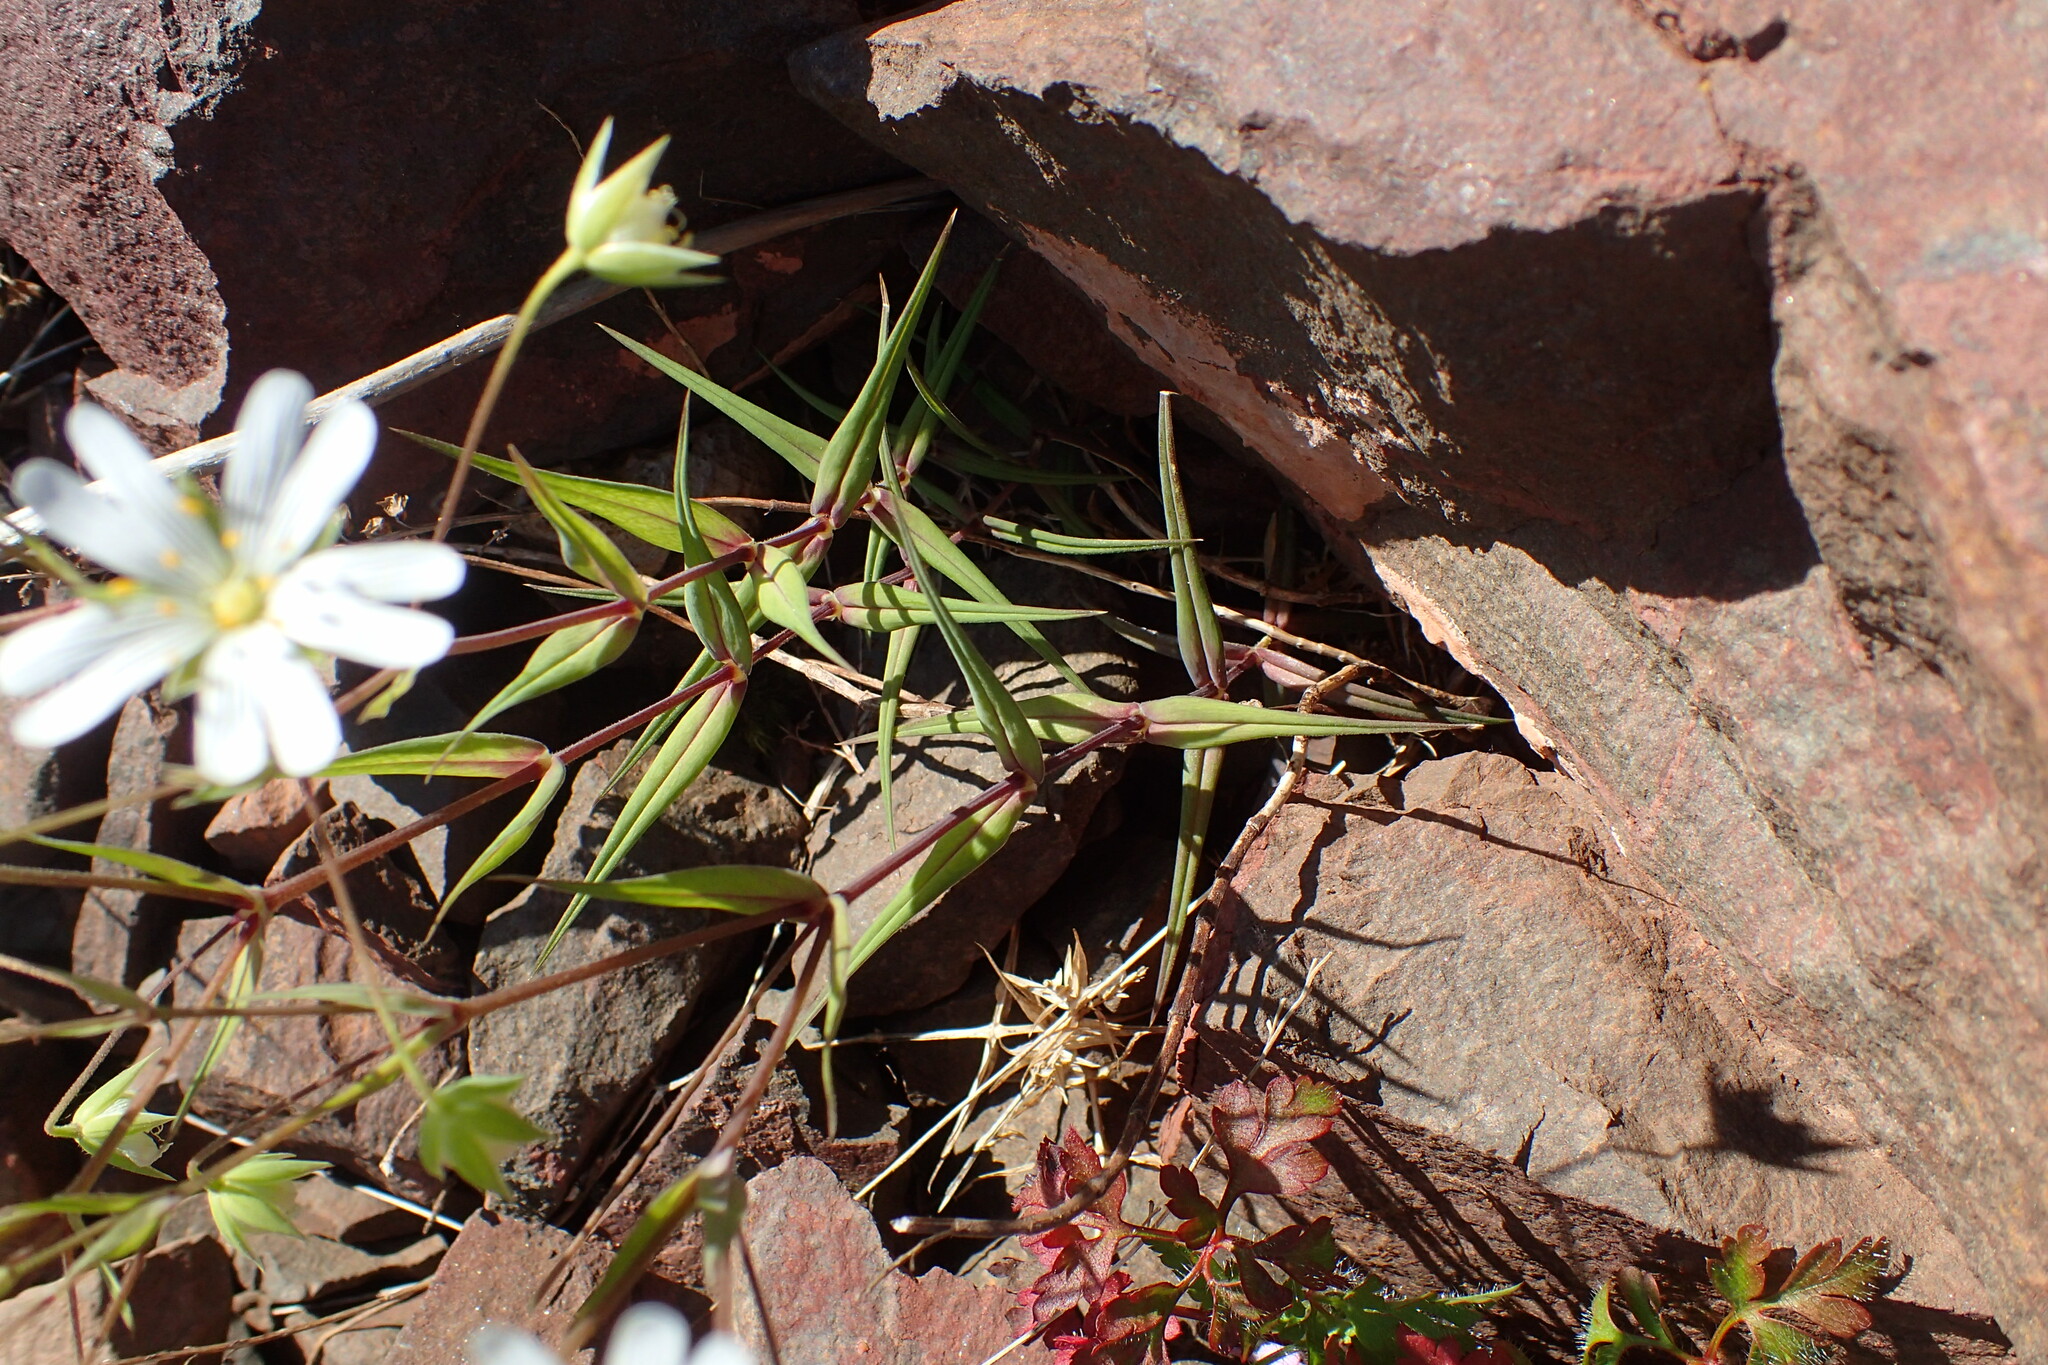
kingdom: Plantae
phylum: Tracheophyta
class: Magnoliopsida
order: Caryophyllales
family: Caryophyllaceae
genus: Rabelera
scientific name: Rabelera holostea
